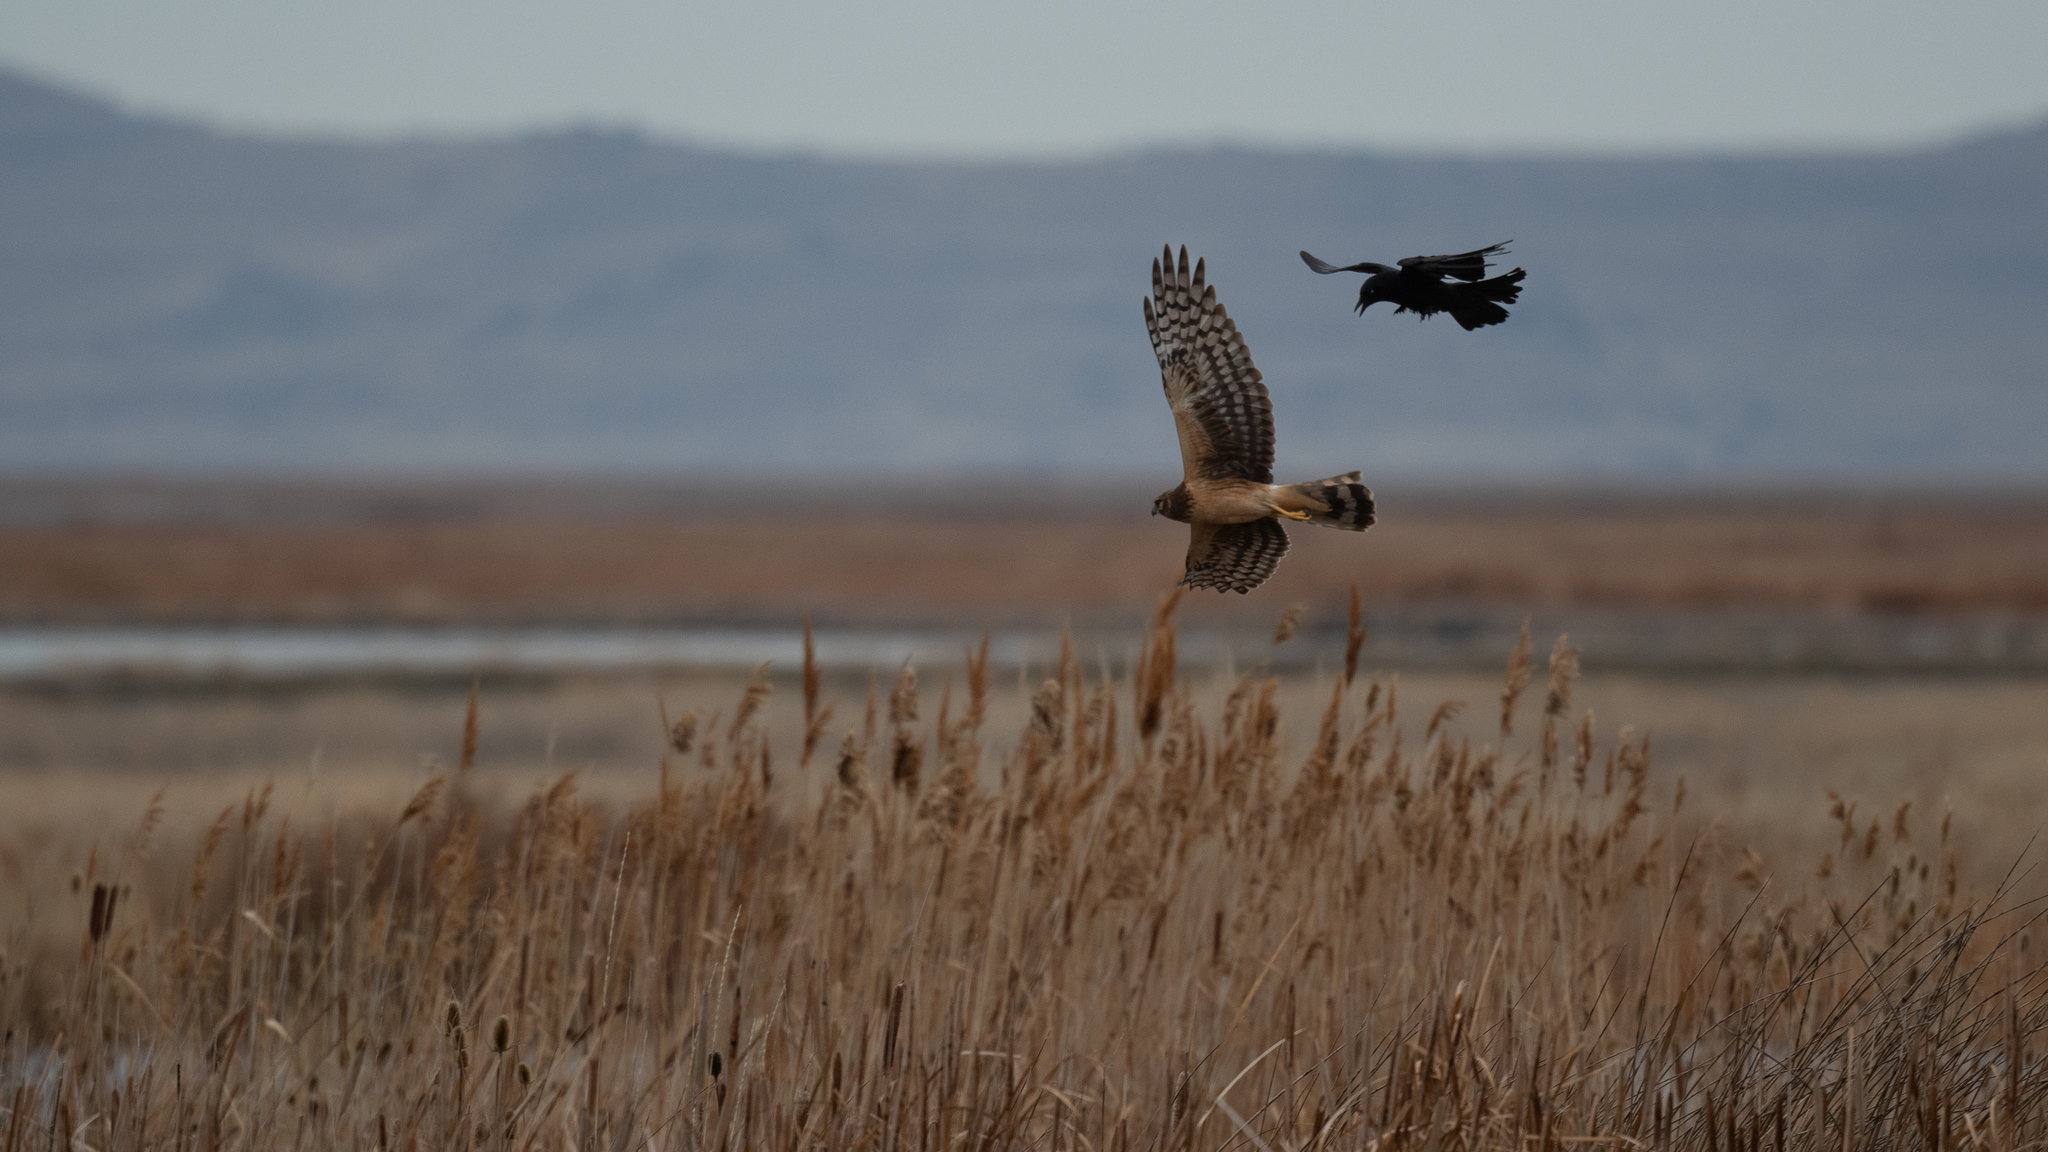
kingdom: Animalia
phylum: Chordata
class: Aves
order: Accipitriformes
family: Accipitridae
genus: Circus
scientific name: Circus cyaneus
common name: Hen harrier
